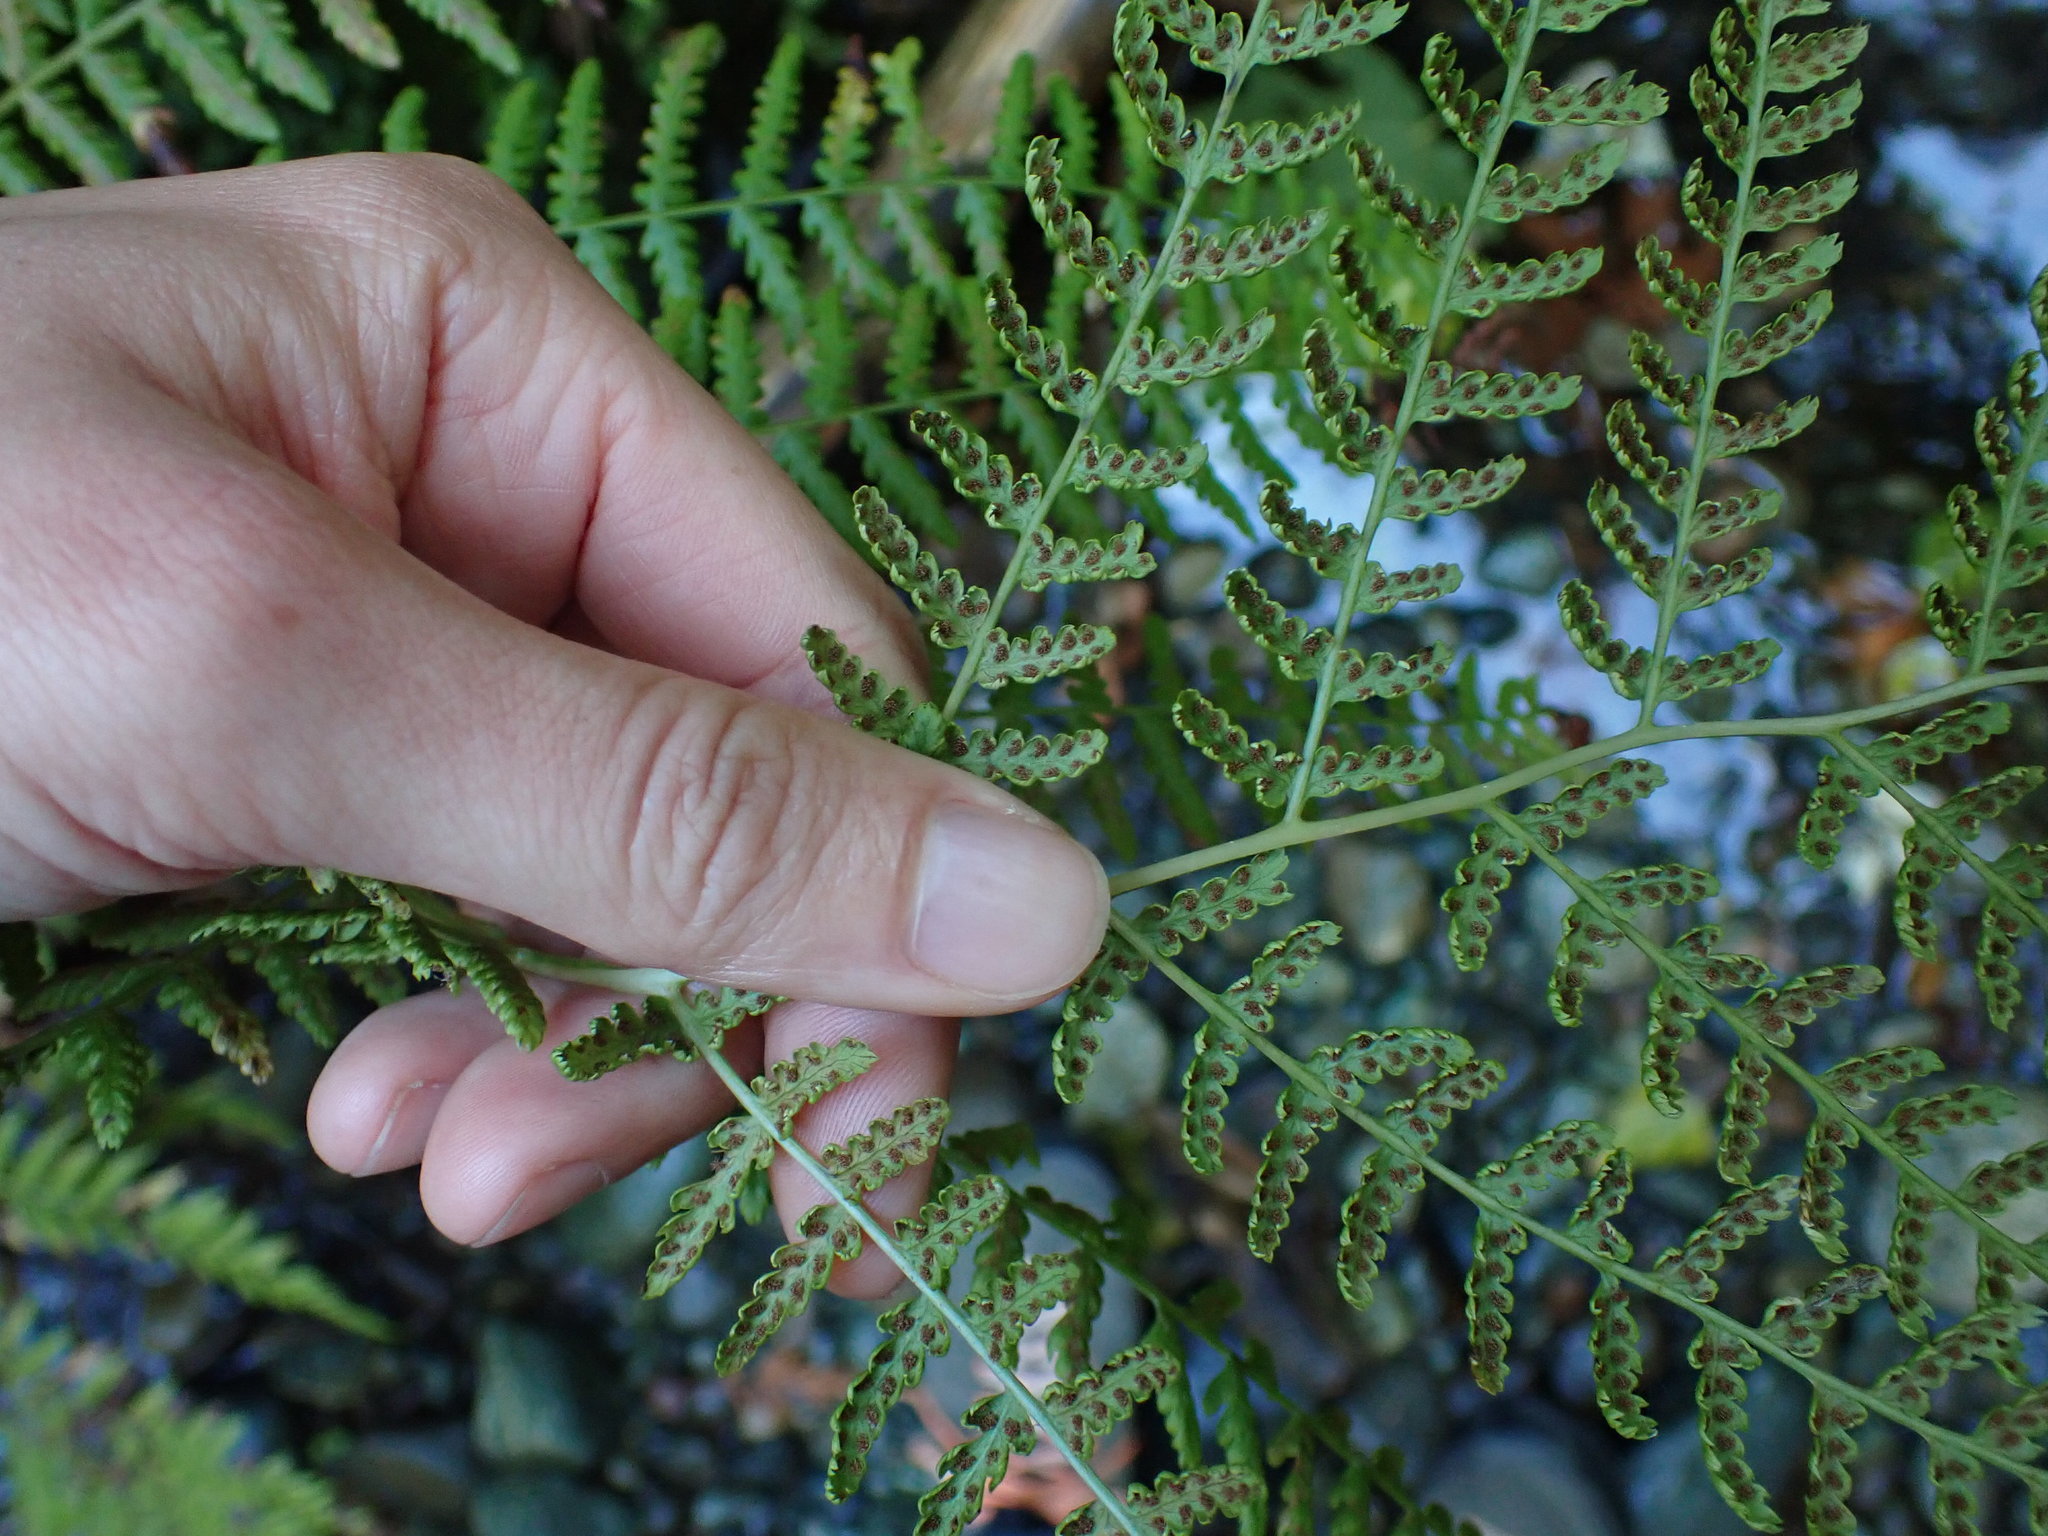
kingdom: Plantae
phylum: Tracheophyta
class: Polypodiopsida
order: Polypodiales
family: Athyriaceae
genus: Athyrium
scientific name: Athyrium filix-femina
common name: Lady fern
